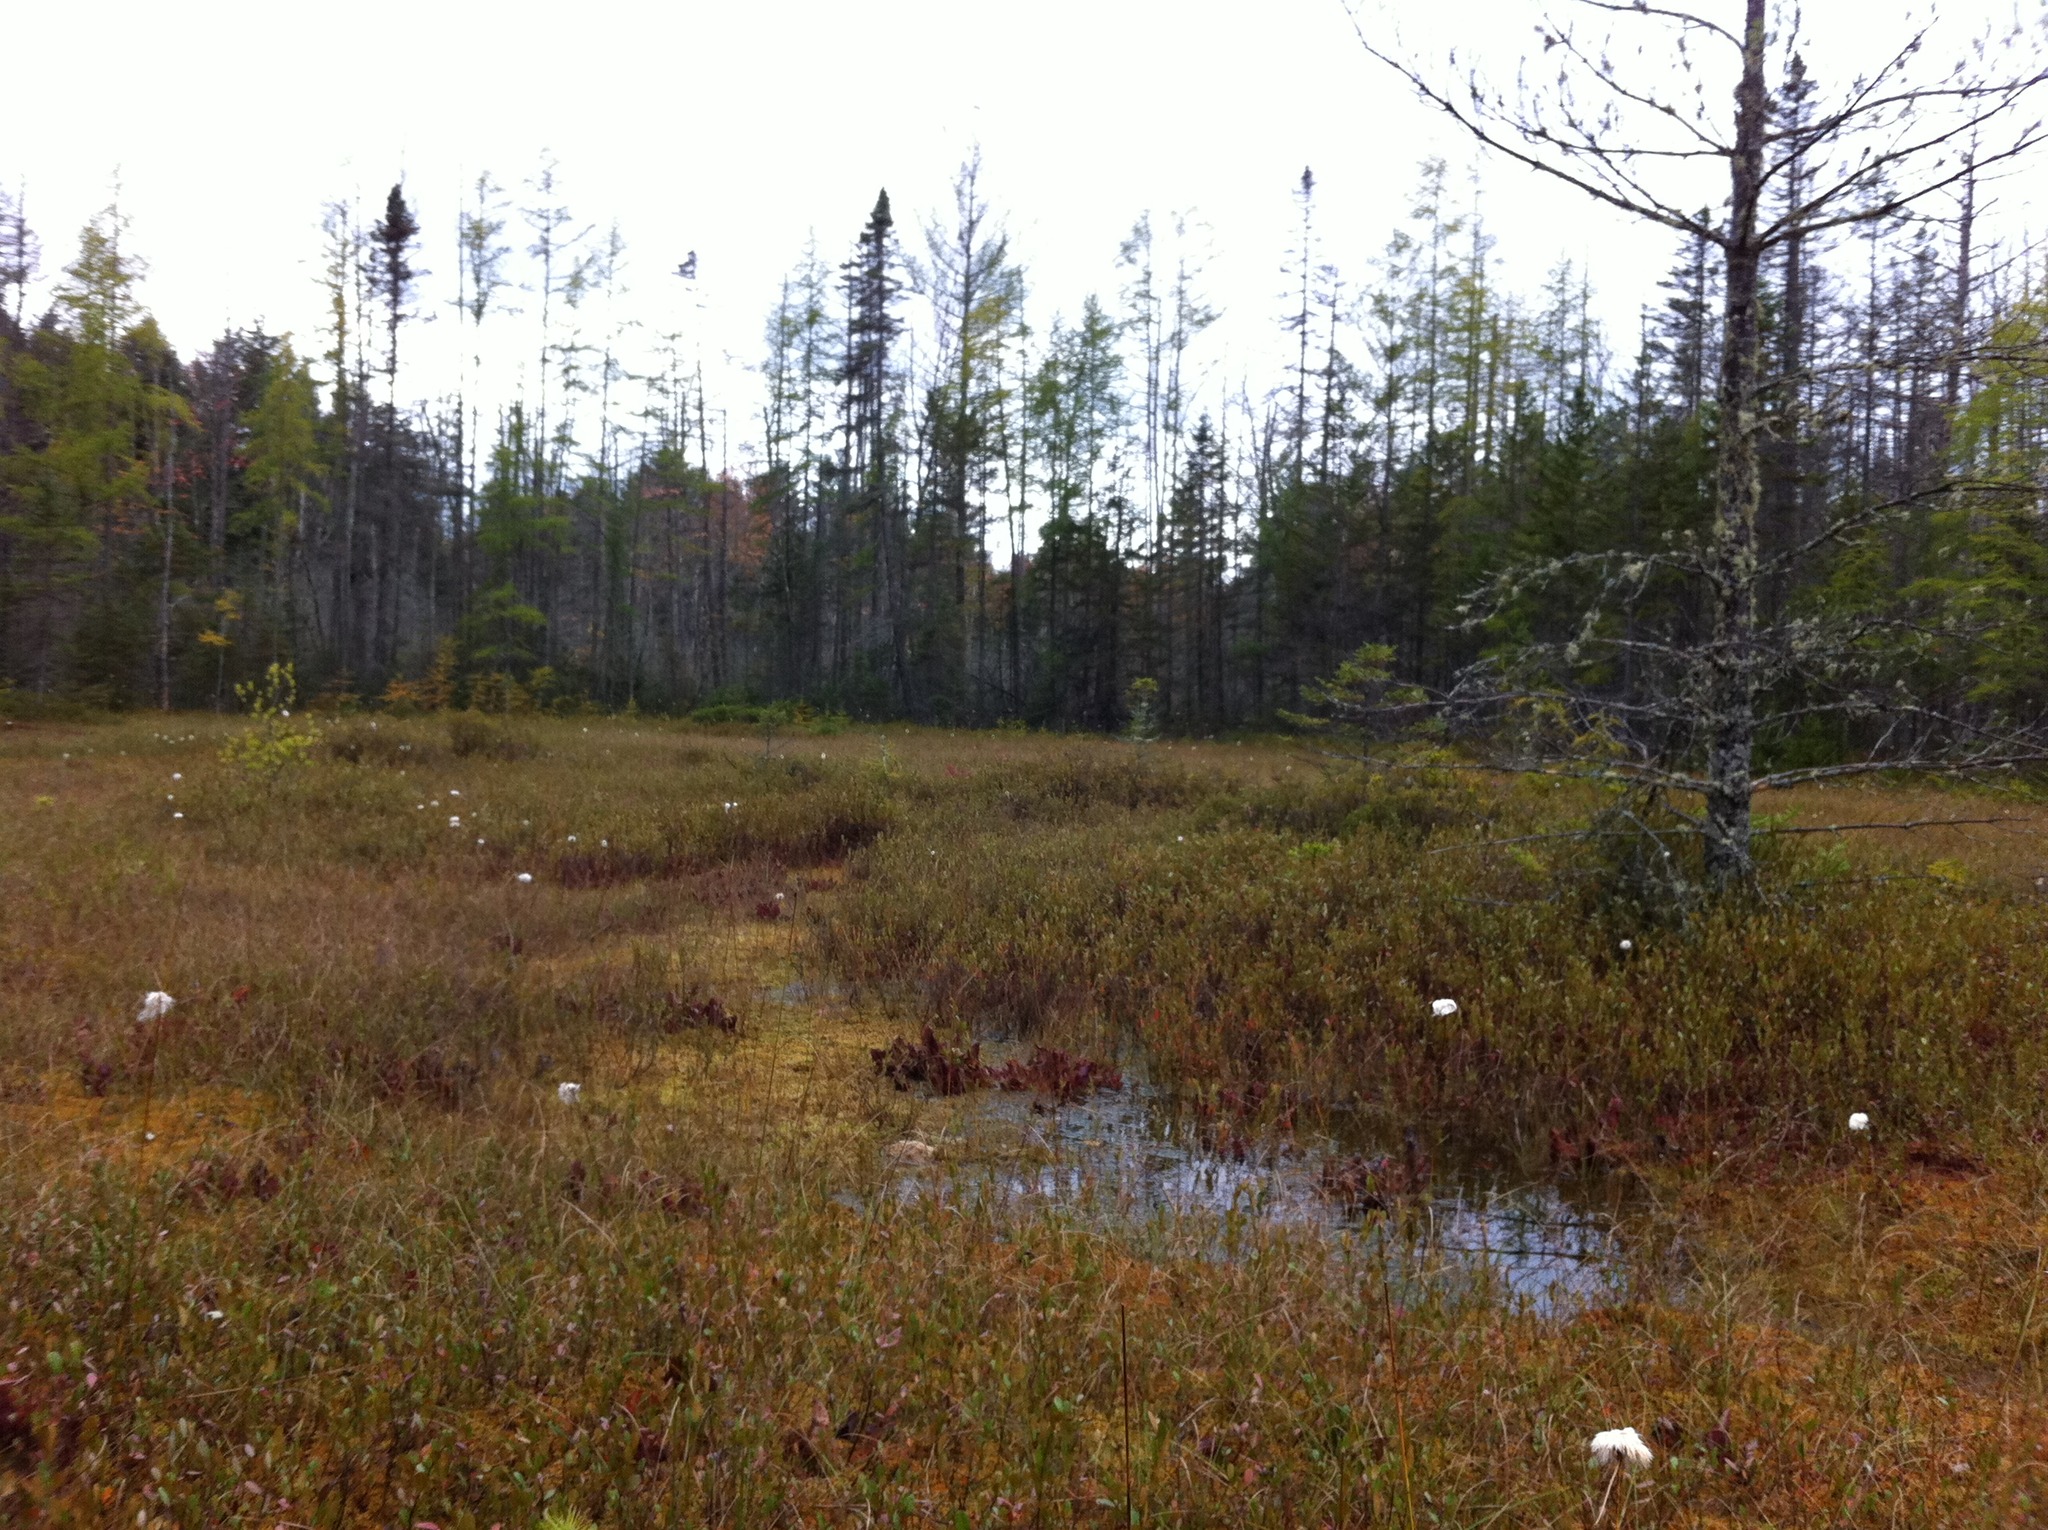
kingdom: Plantae
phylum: Tracheophyta
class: Liliopsida
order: Poales
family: Cyperaceae
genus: Eriophorum
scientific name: Eriophorum virginicum
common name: Tawny cottongrass
